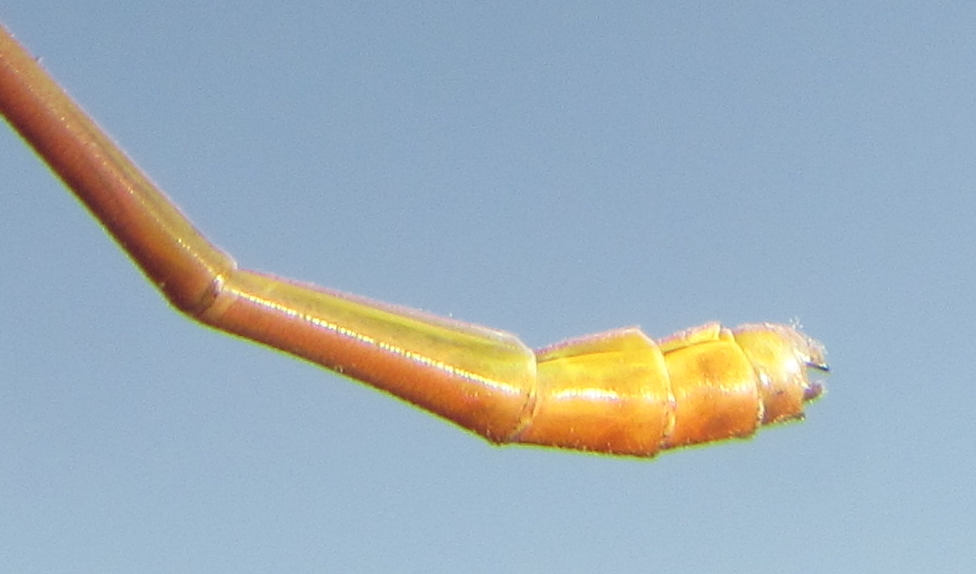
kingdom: Animalia
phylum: Arthropoda
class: Insecta
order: Odonata
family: Coenagrionidae
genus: Ceriagrion
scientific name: Ceriagrion glabrum
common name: Common pond damsel
